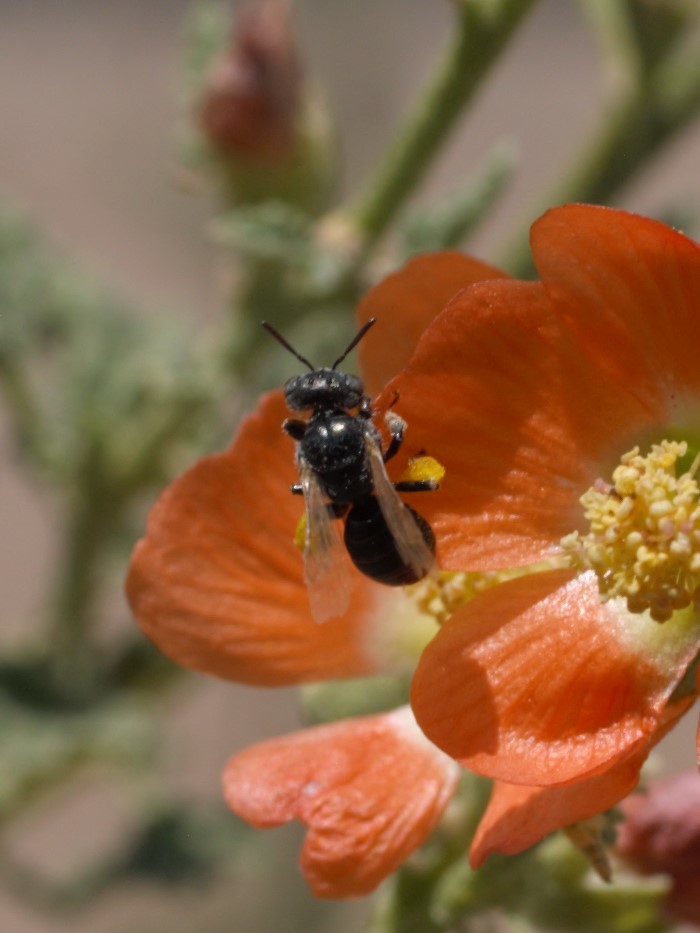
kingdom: Animalia
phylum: Arthropoda
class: Insecta
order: Hymenoptera
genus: Macroteropsis
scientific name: Macroteropsis
